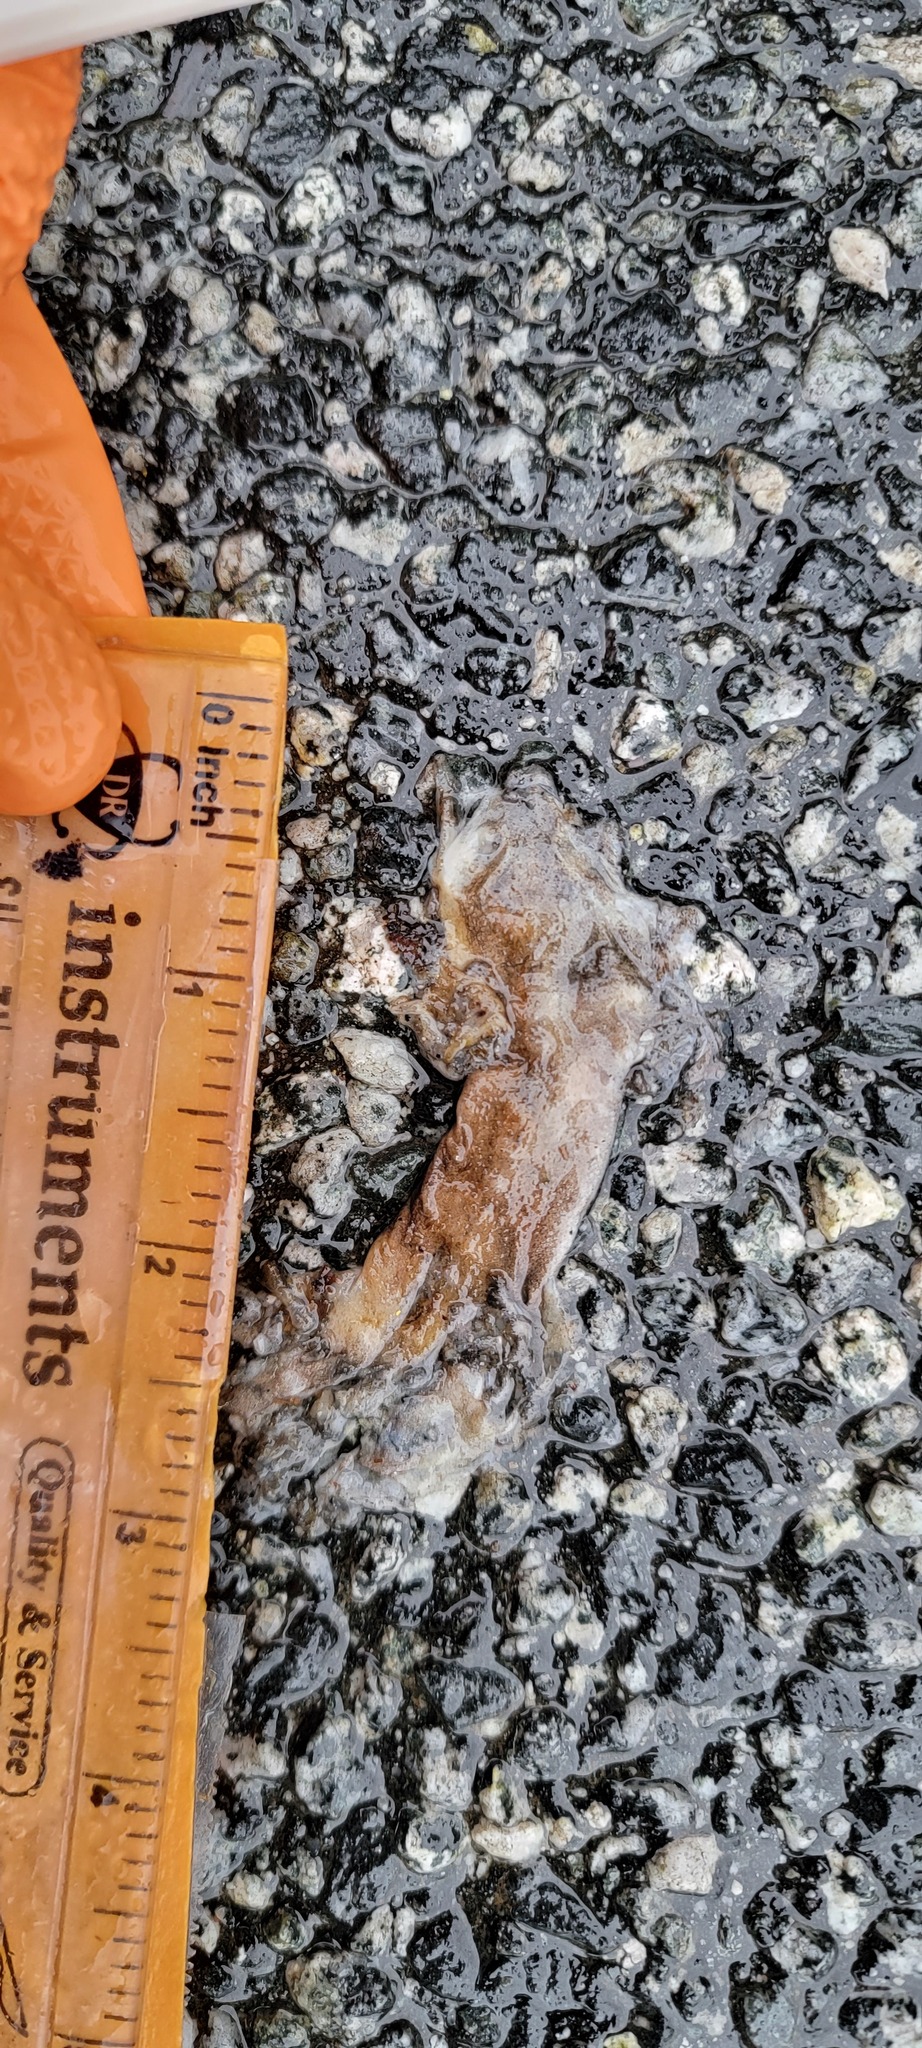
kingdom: Animalia
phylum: Chordata
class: Amphibia
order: Caudata
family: Salamandridae
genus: Taricha
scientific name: Taricha
